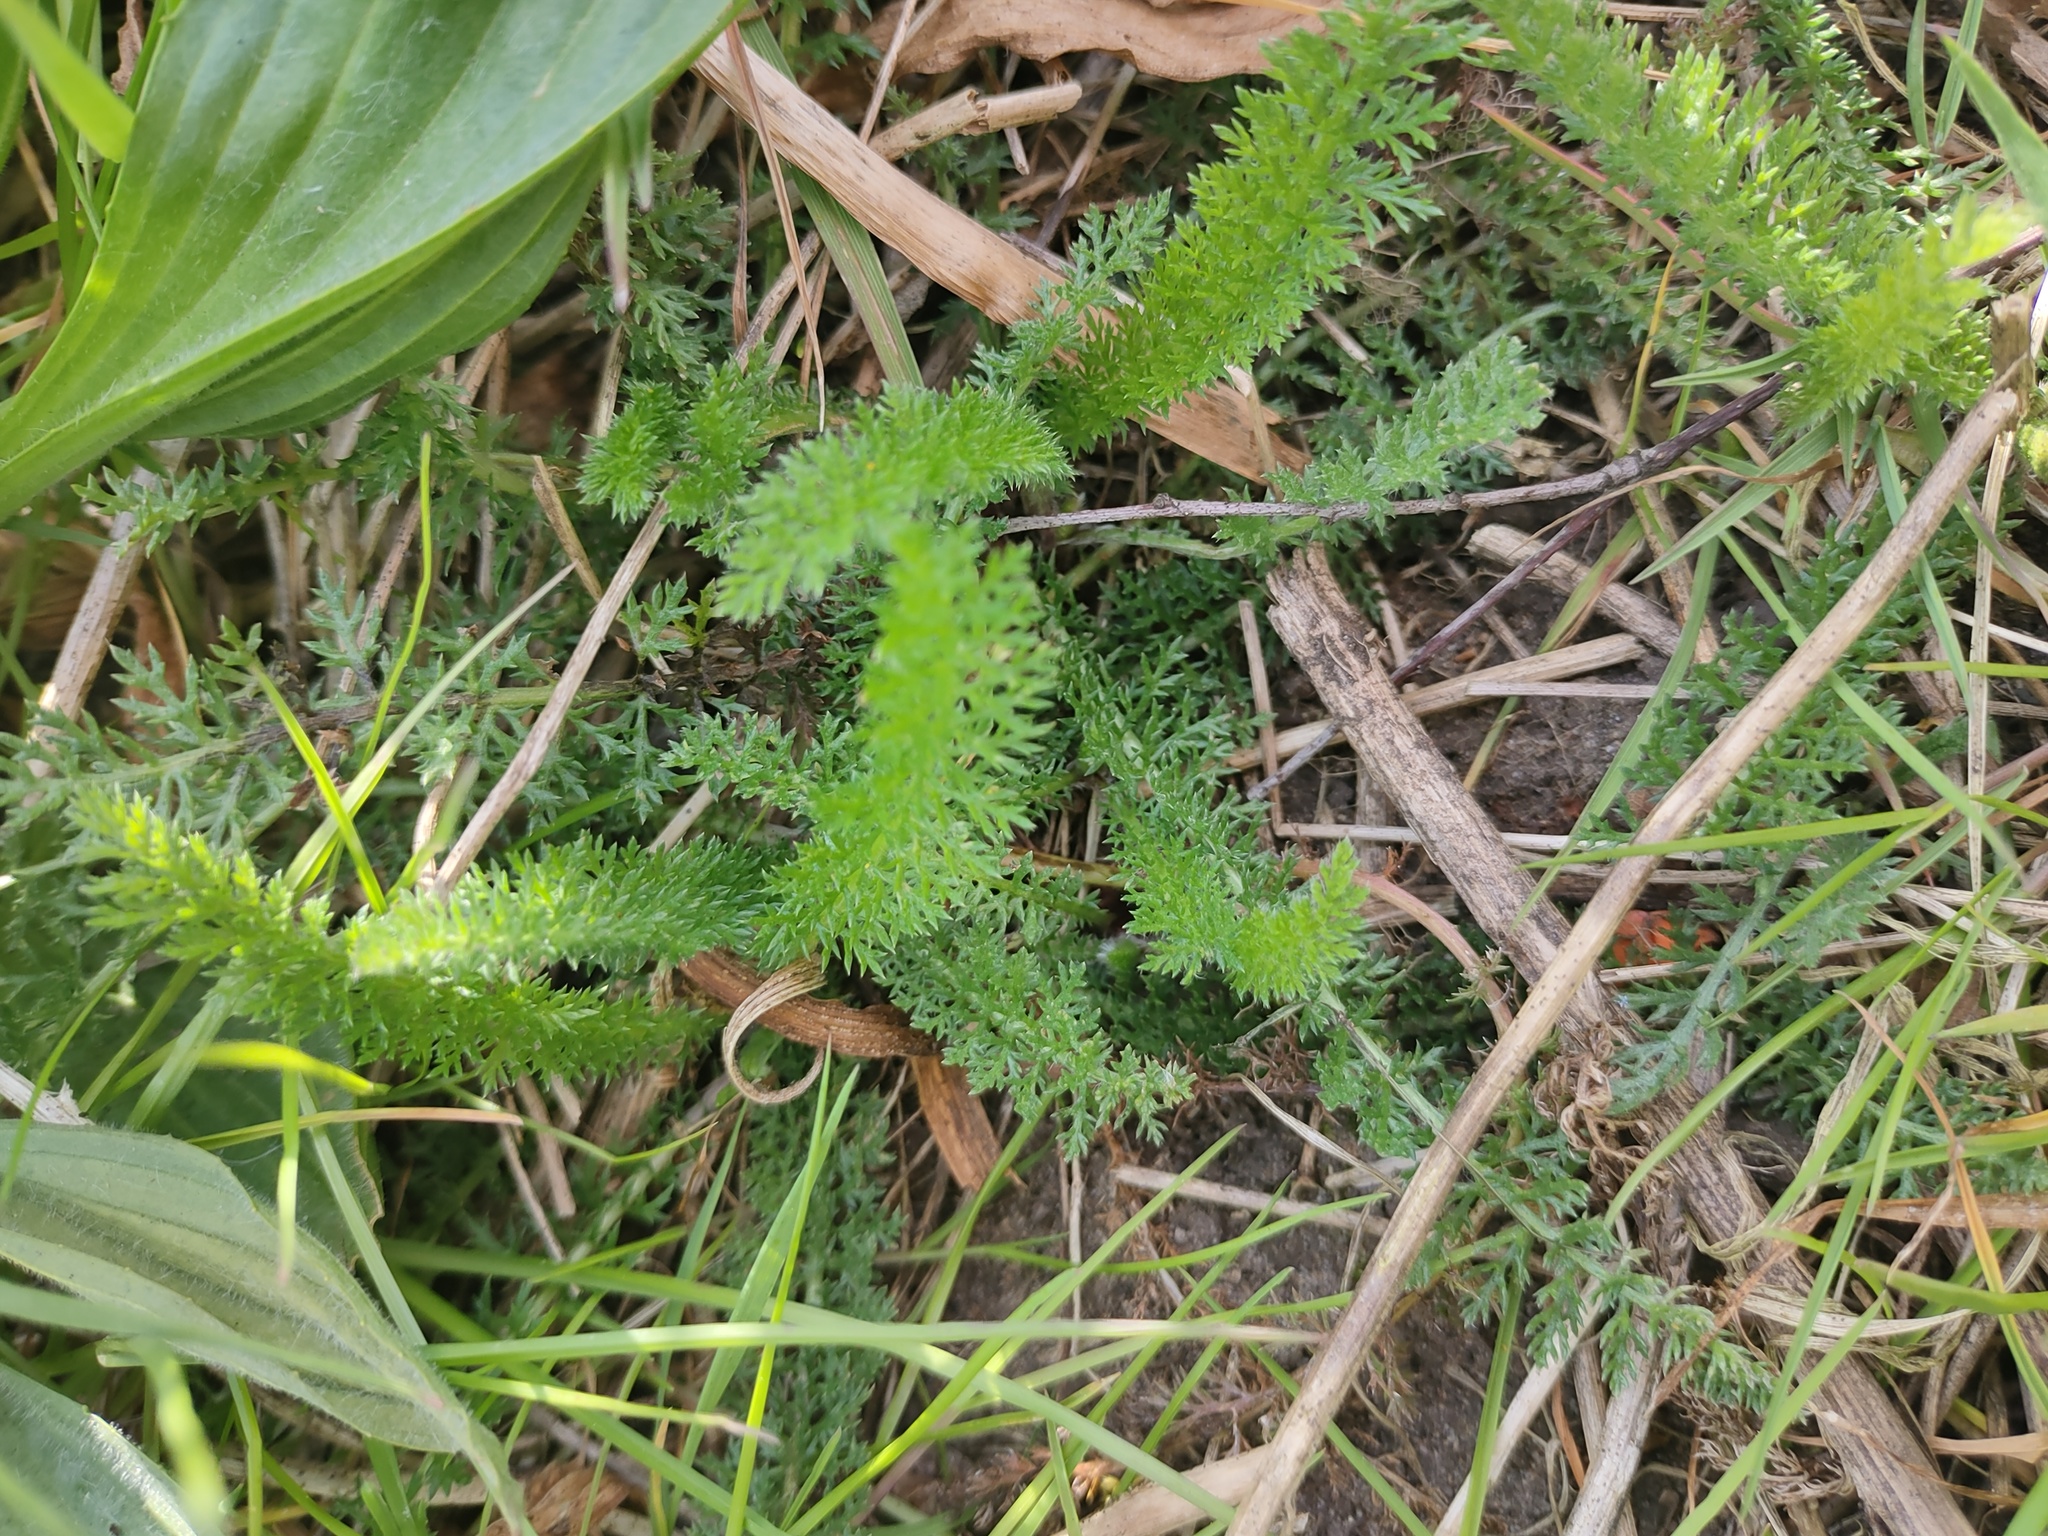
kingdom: Plantae
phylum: Tracheophyta
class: Magnoliopsida
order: Asterales
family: Asteraceae
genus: Achillea
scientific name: Achillea millefolium
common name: Yarrow
